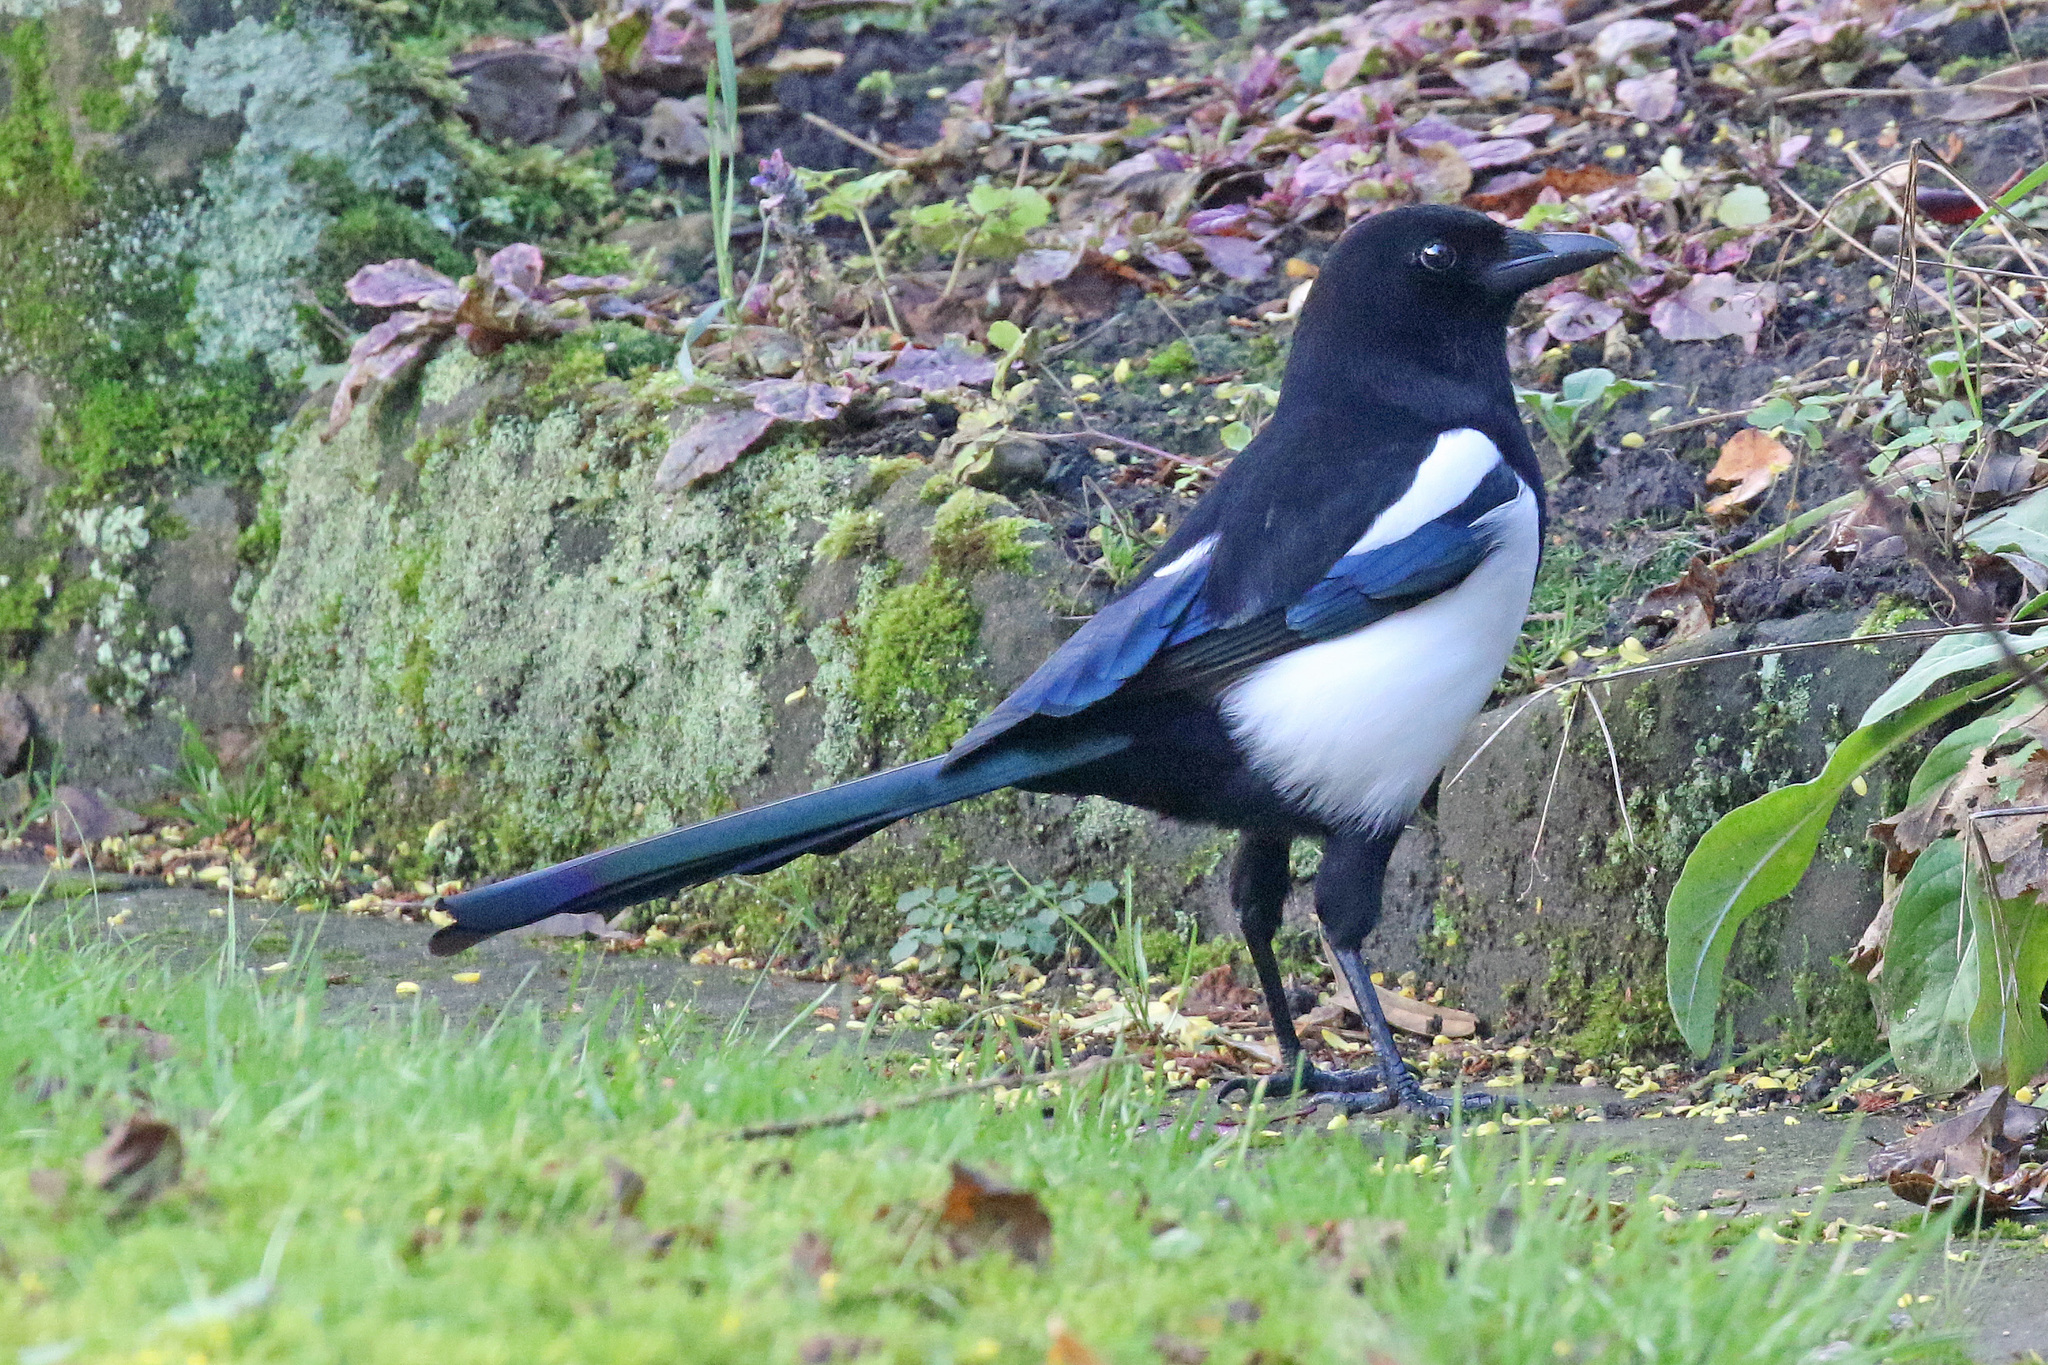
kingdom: Animalia
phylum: Chordata
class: Aves
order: Passeriformes
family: Corvidae
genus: Pica
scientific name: Pica pica
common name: Eurasian magpie
